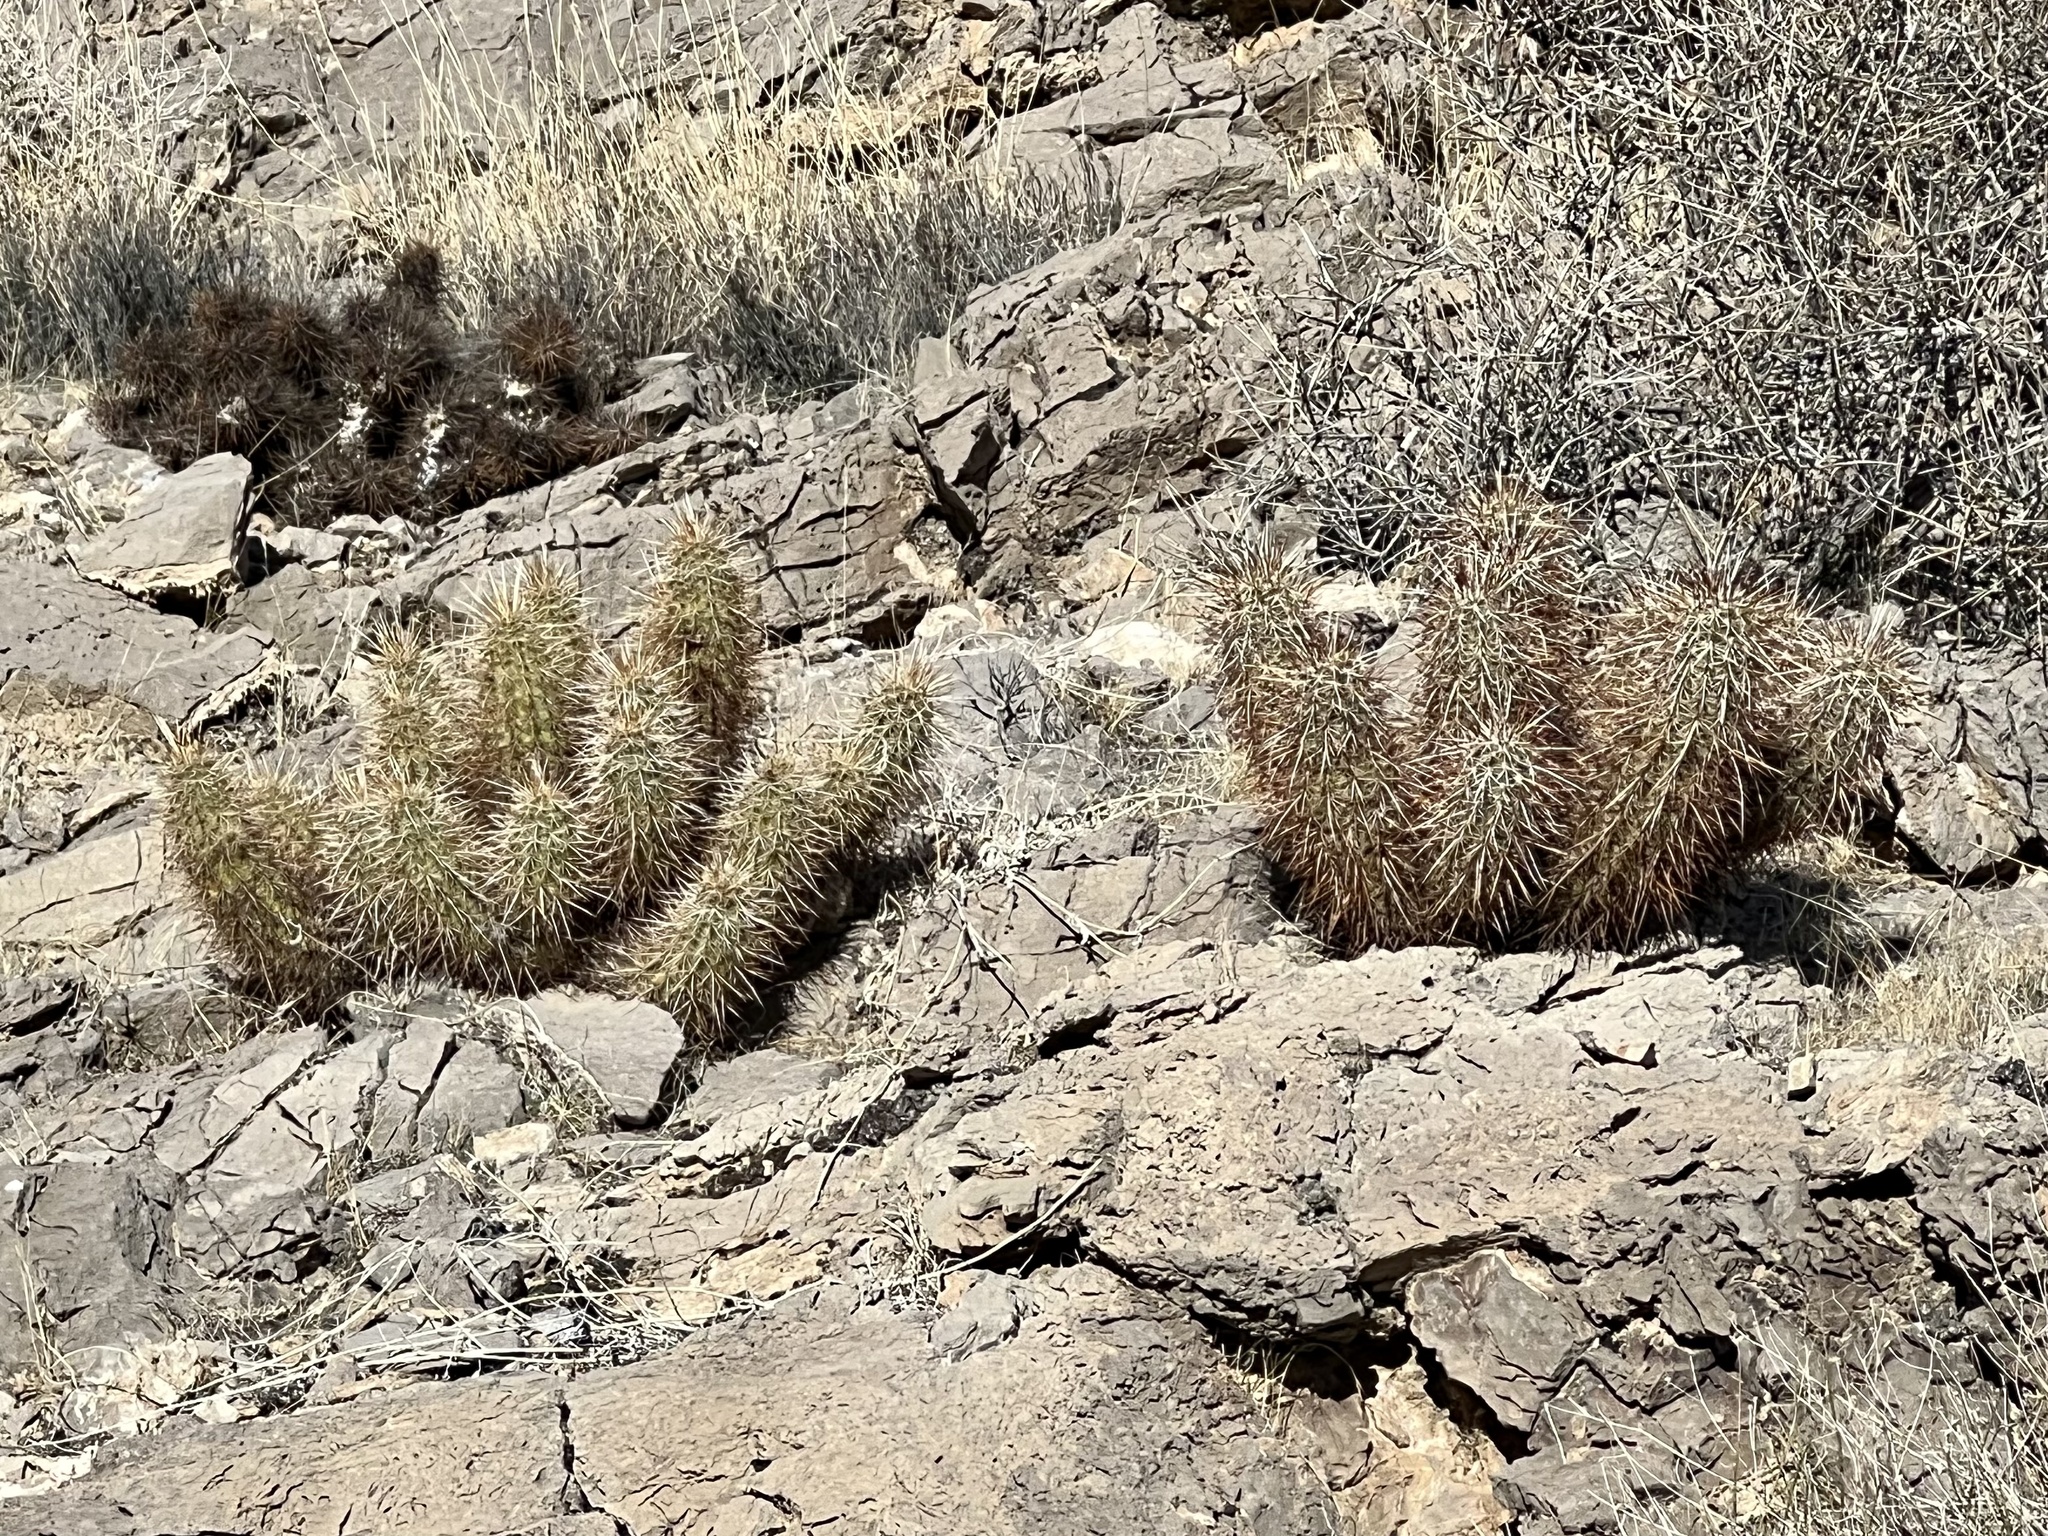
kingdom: Plantae
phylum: Tracheophyta
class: Magnoliopsida
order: Caryophyllales
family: Cactaceae
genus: Echinocereus
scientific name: Echinocereus engelmannii
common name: Engelmann's hedgehog cactus
